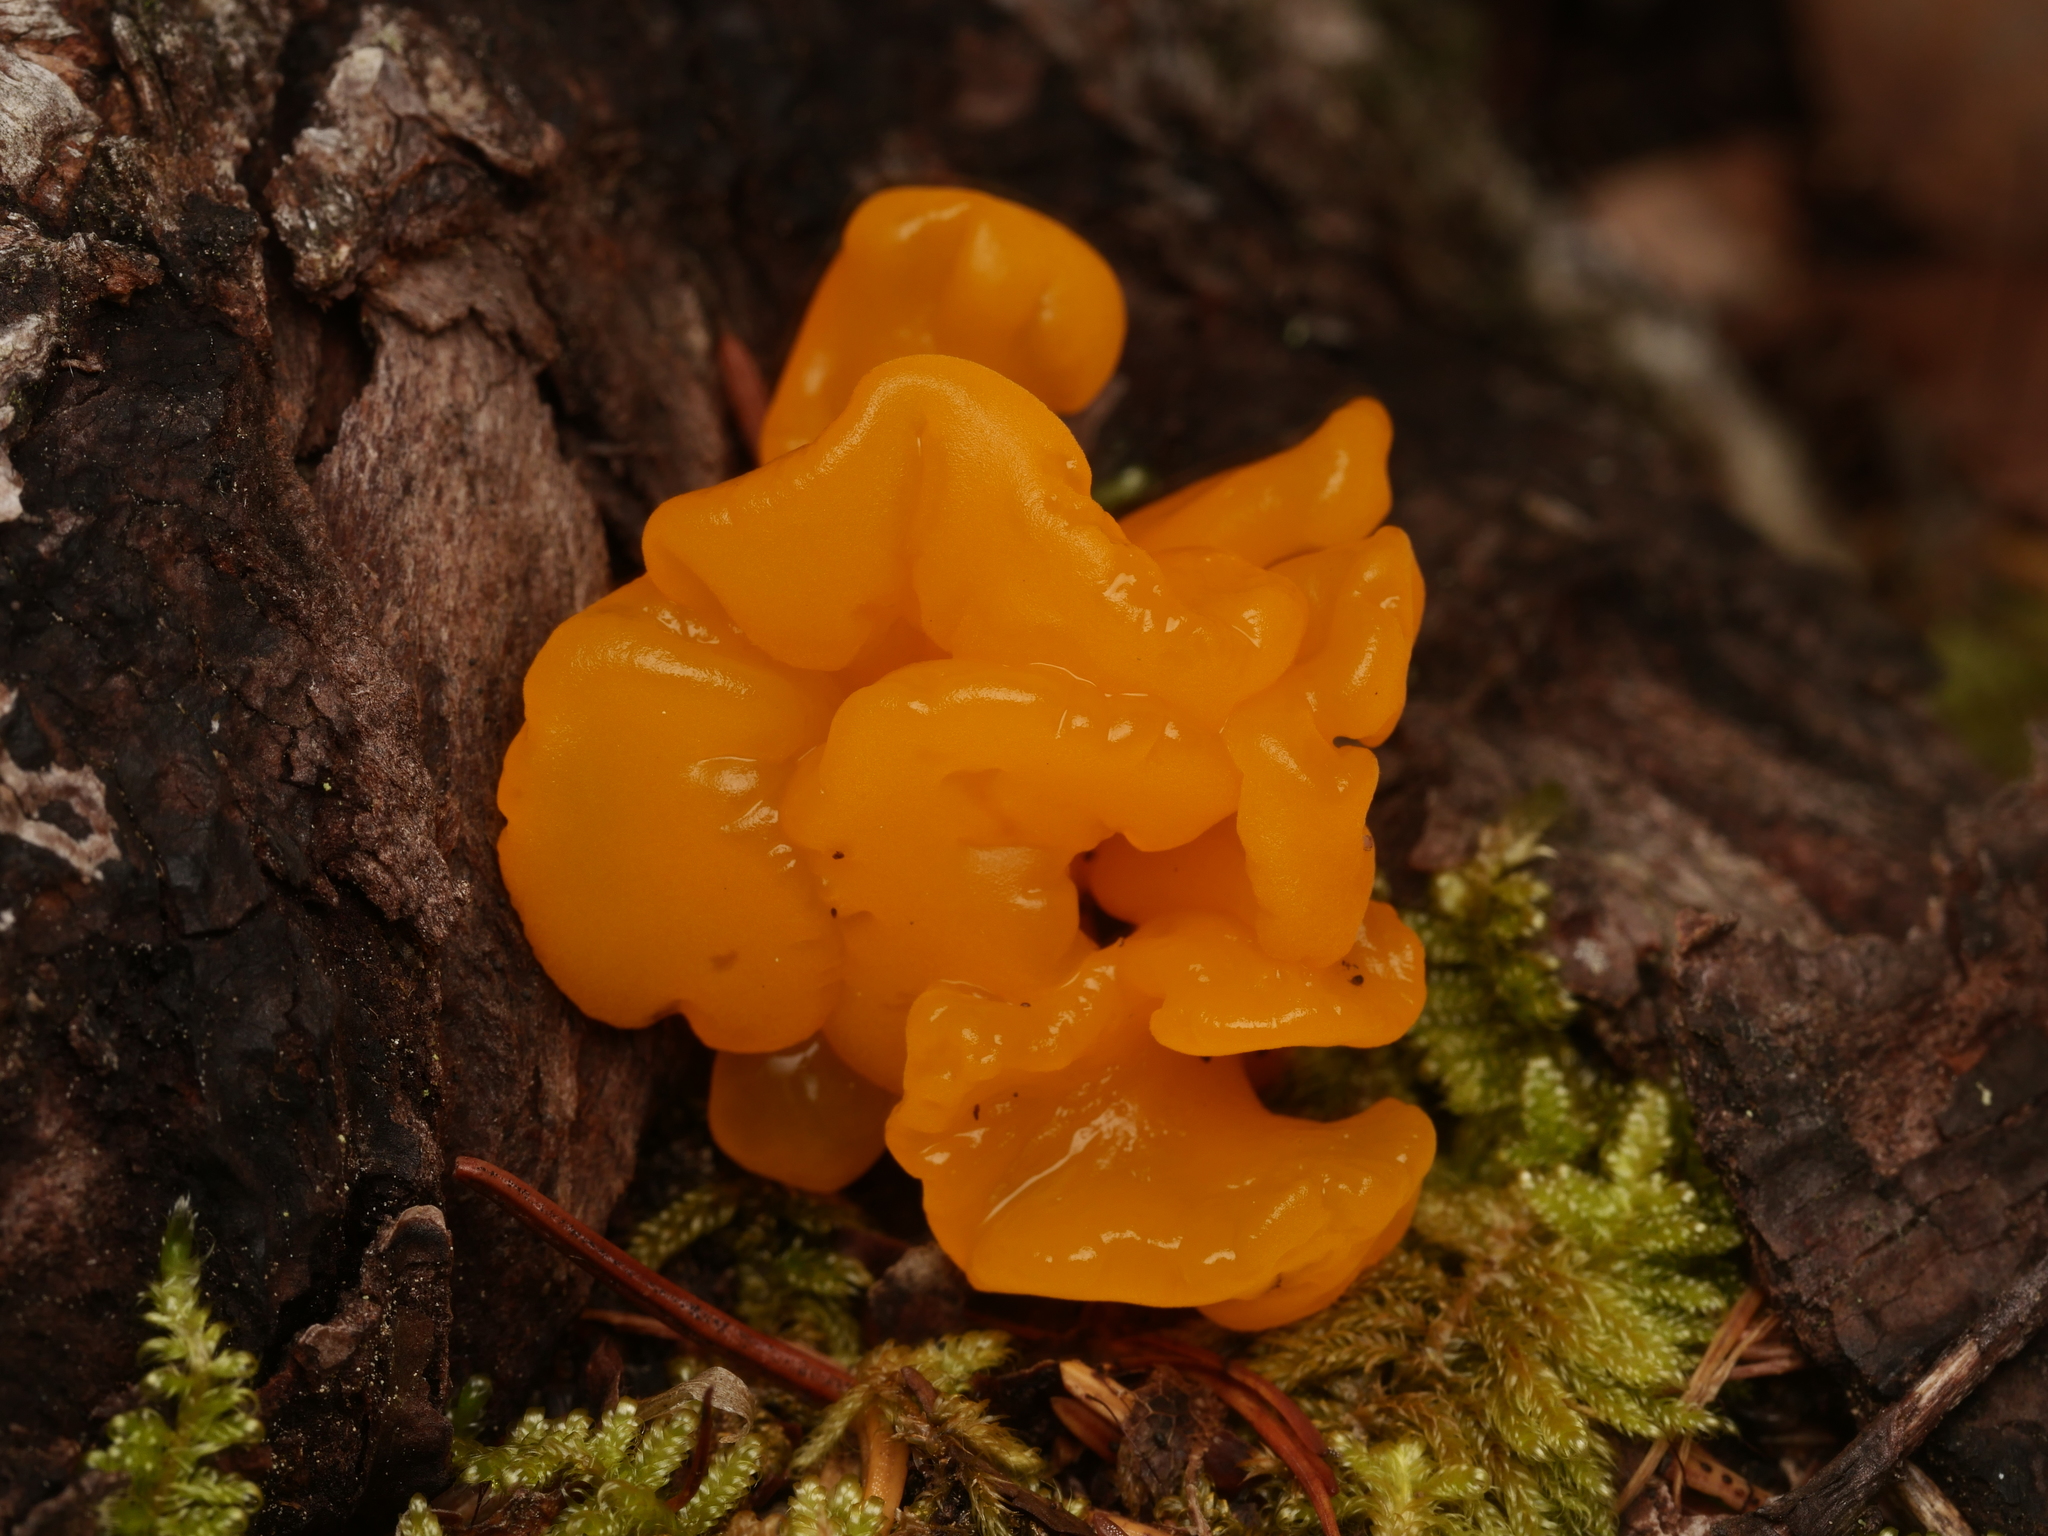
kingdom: Fungi
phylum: Basidiomycota
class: Dacrymycetes
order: Dacrymycetales
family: Dacrymycetaceae
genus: Dacrymyces
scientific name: Dacrymyces chrysospermus
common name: Orange jelly spot
